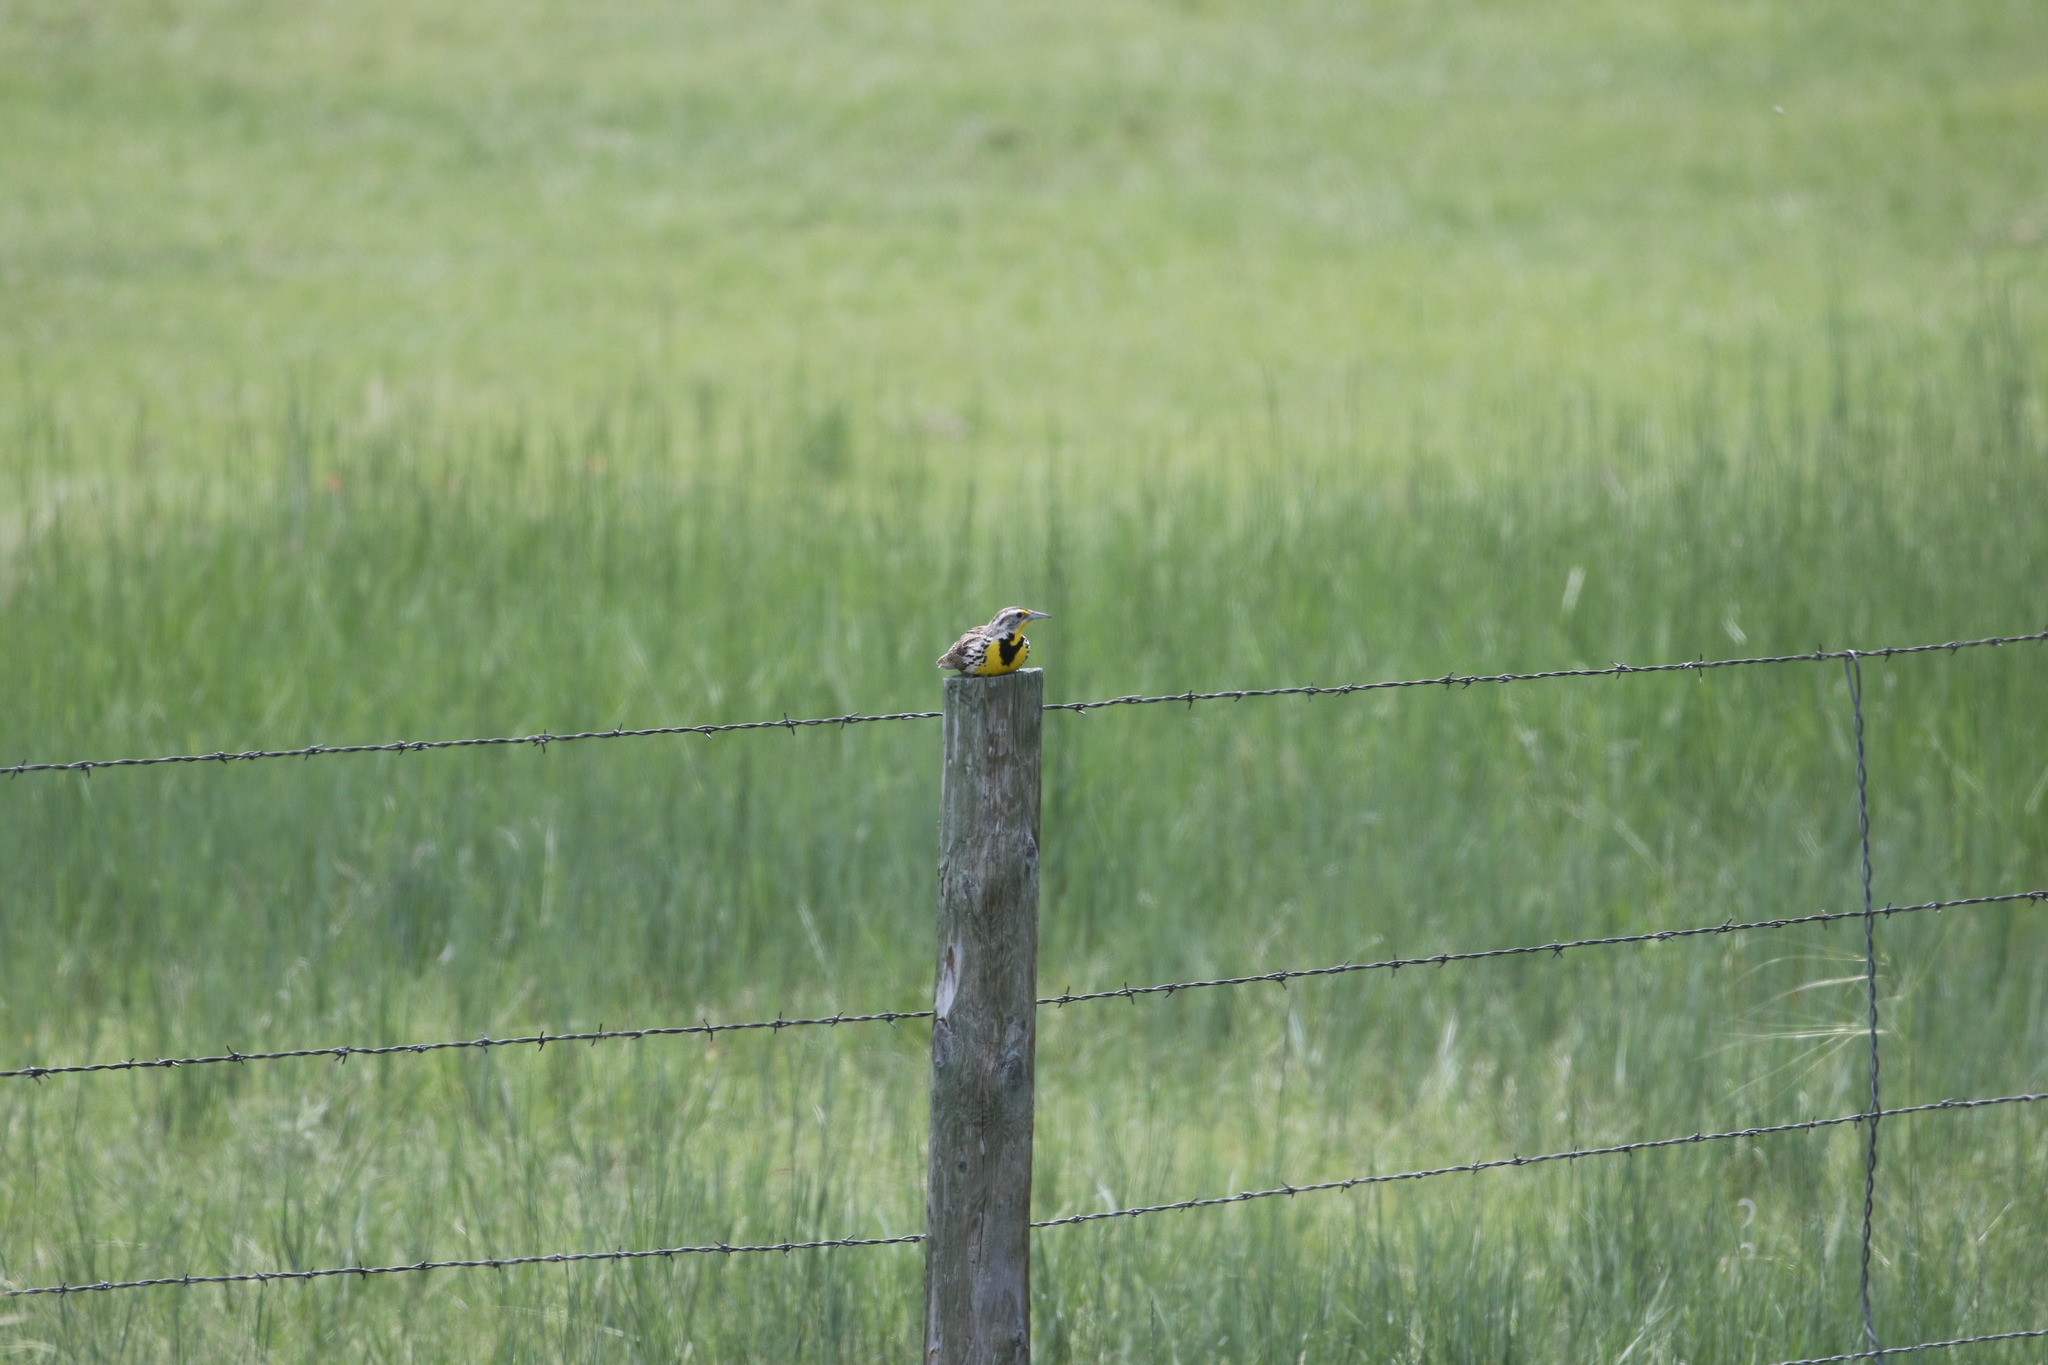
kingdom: Animalia
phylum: Chordata
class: Aves
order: Passeriformes
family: Icteridae
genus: Sturnella
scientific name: Sturnella neglecta
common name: Western meadowlark
